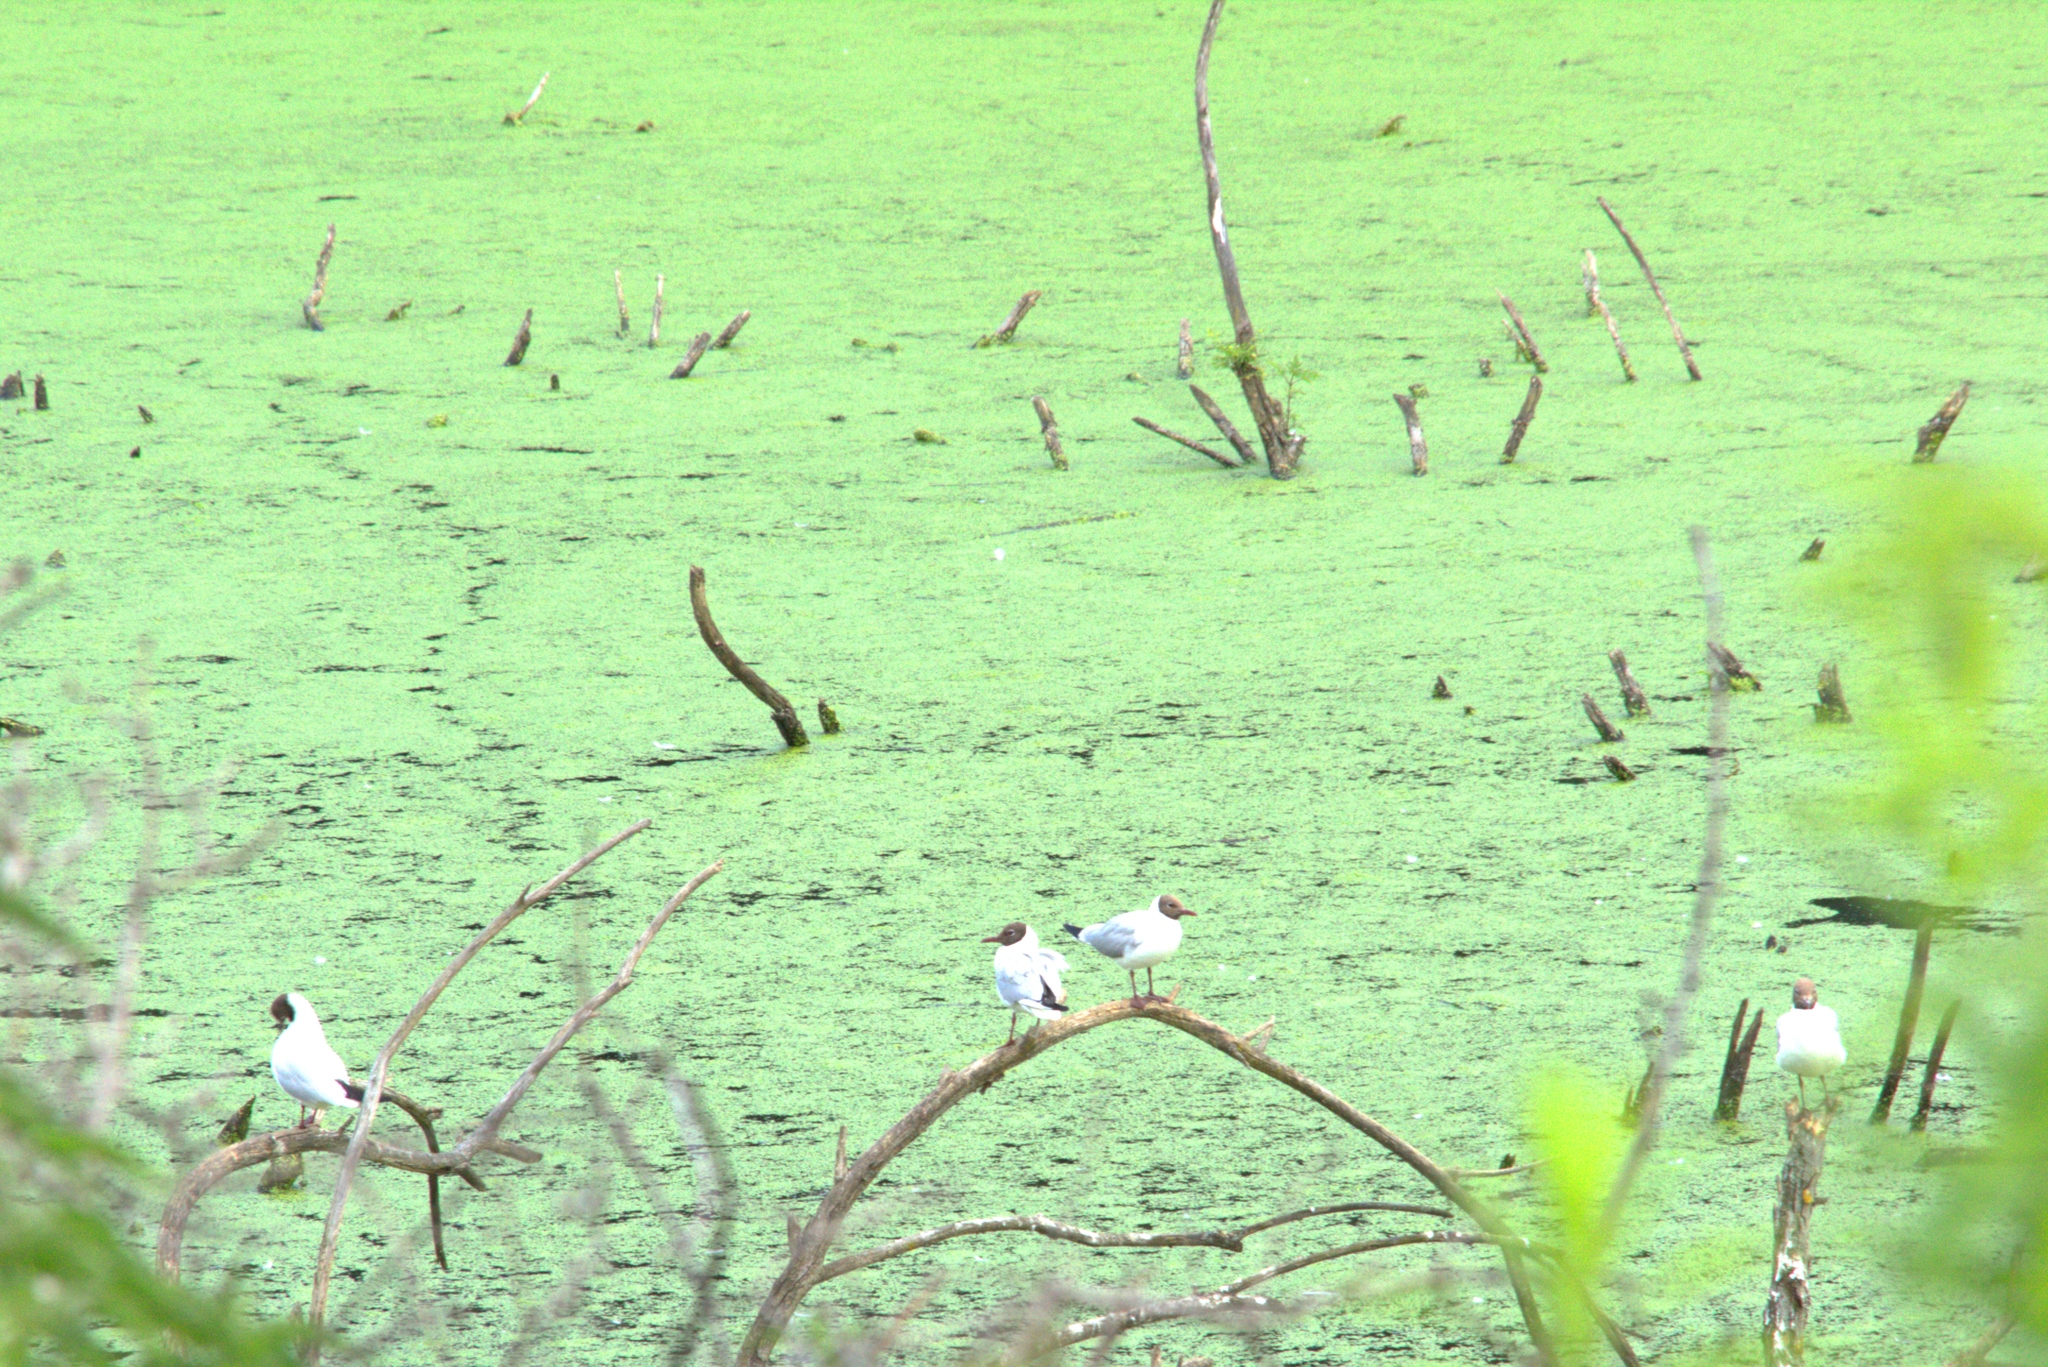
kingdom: Animalia
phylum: Chordata
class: Aves
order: Charadriiformes
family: Laridae
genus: Chroicocephalus
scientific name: Chroicocephalus ridibundus
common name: Black-headed gull
